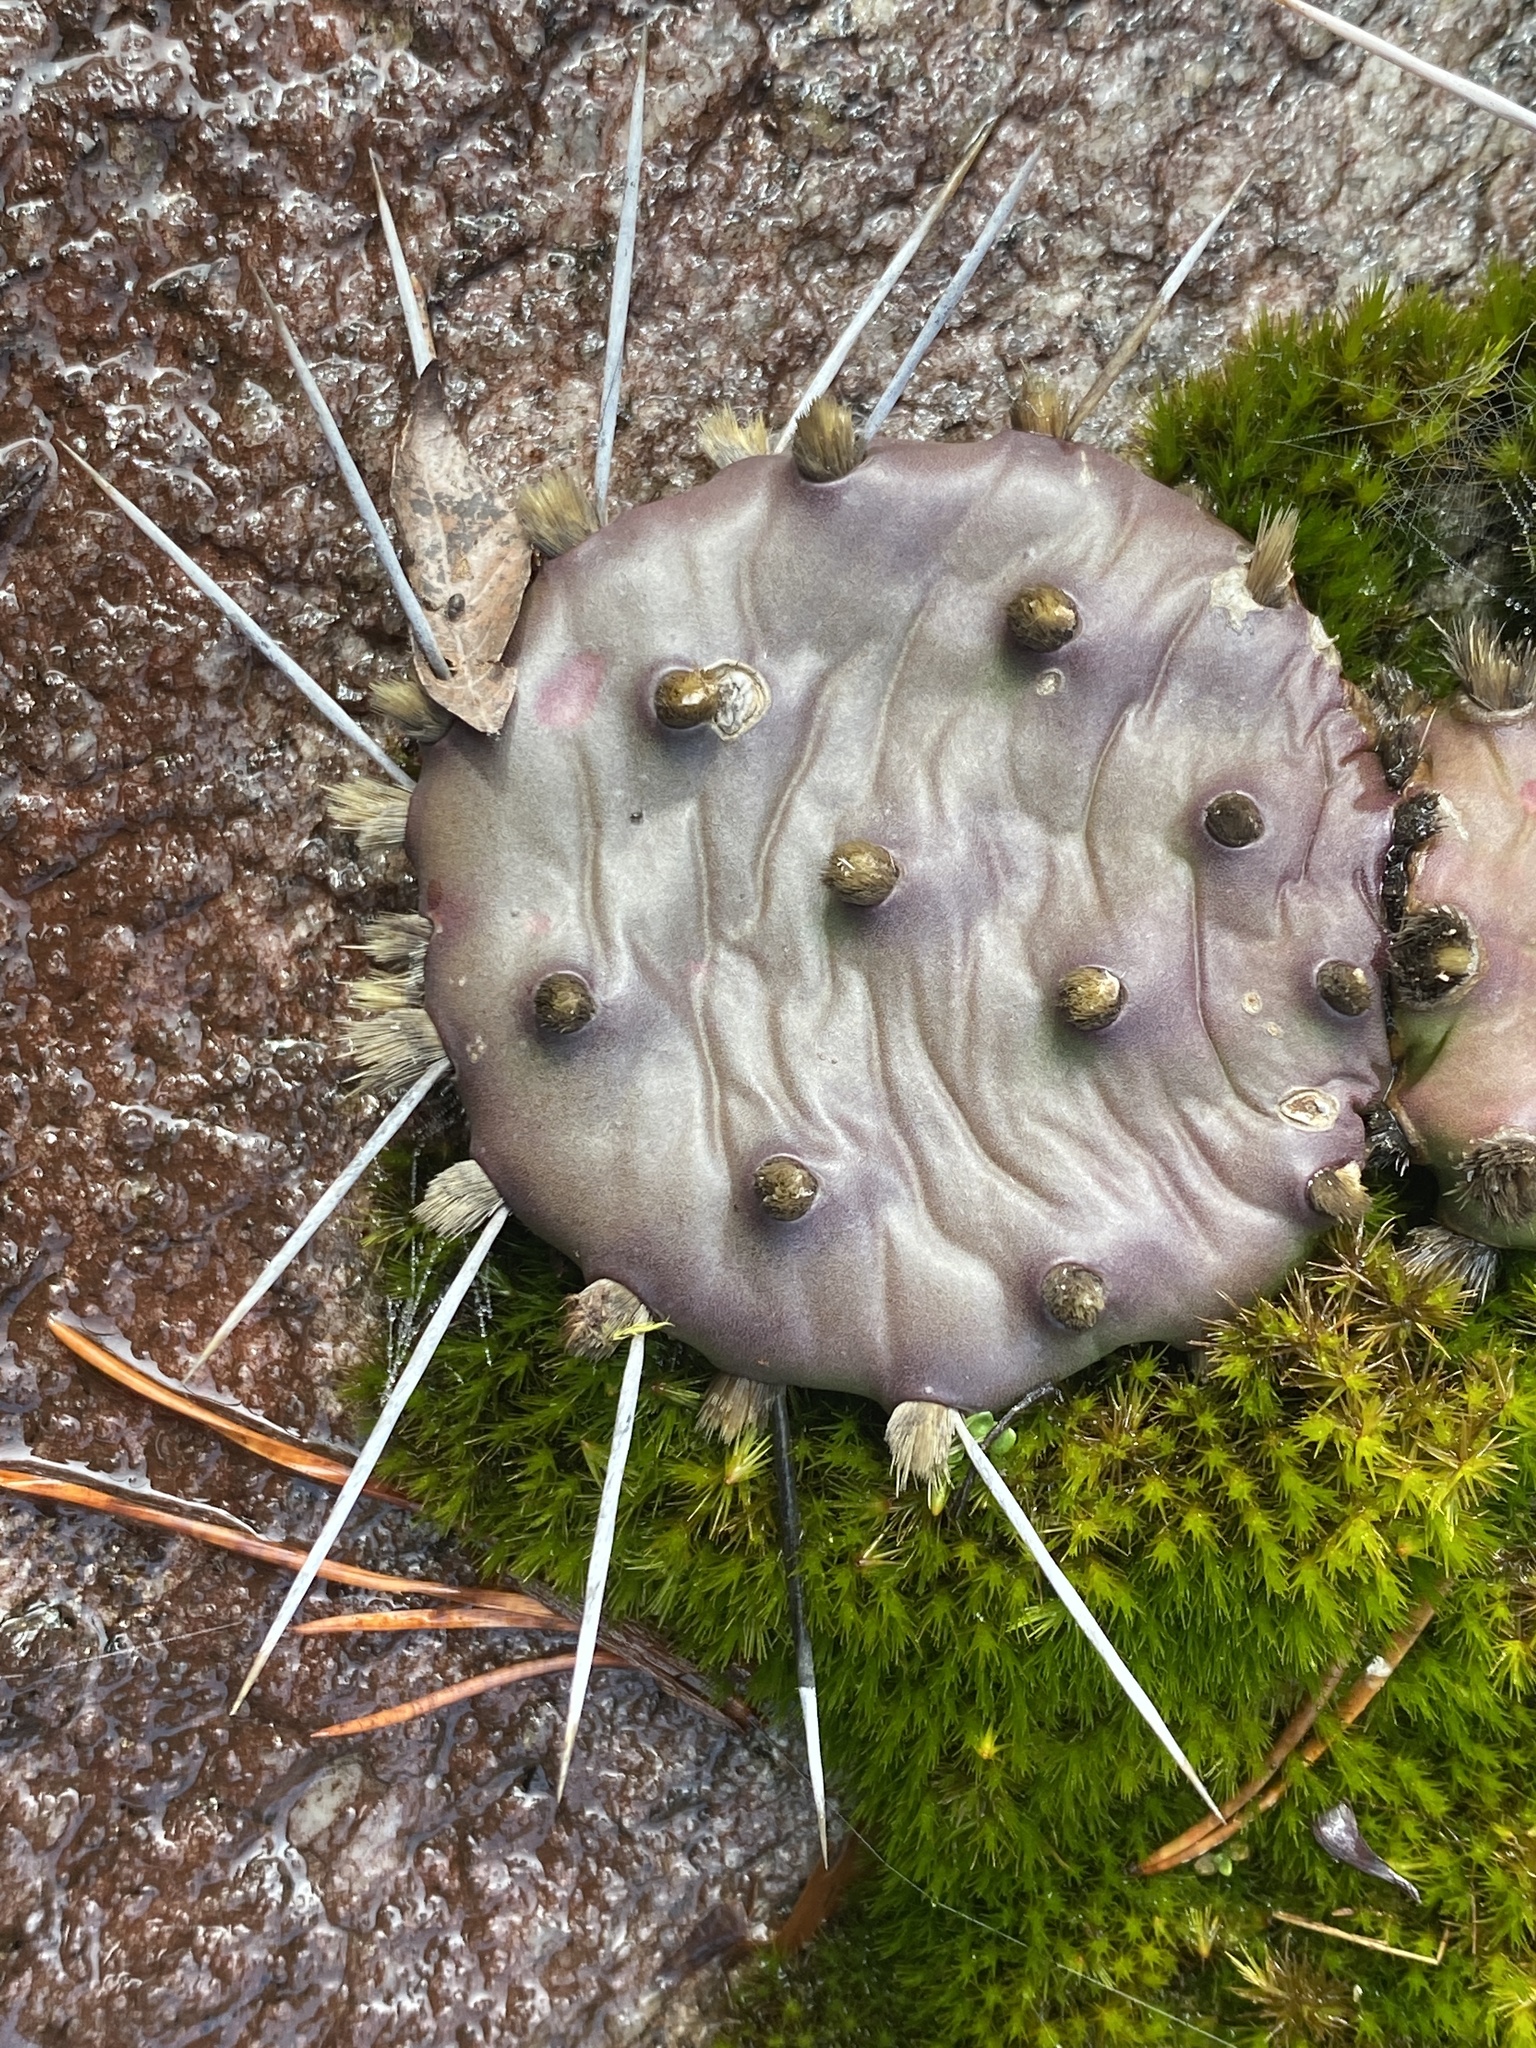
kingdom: Plantae
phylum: Tracheophyta
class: Magnoliopsida
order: Caryophyllales
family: Cactaceae
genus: Opuntia
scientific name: Opuntia mesacantha
